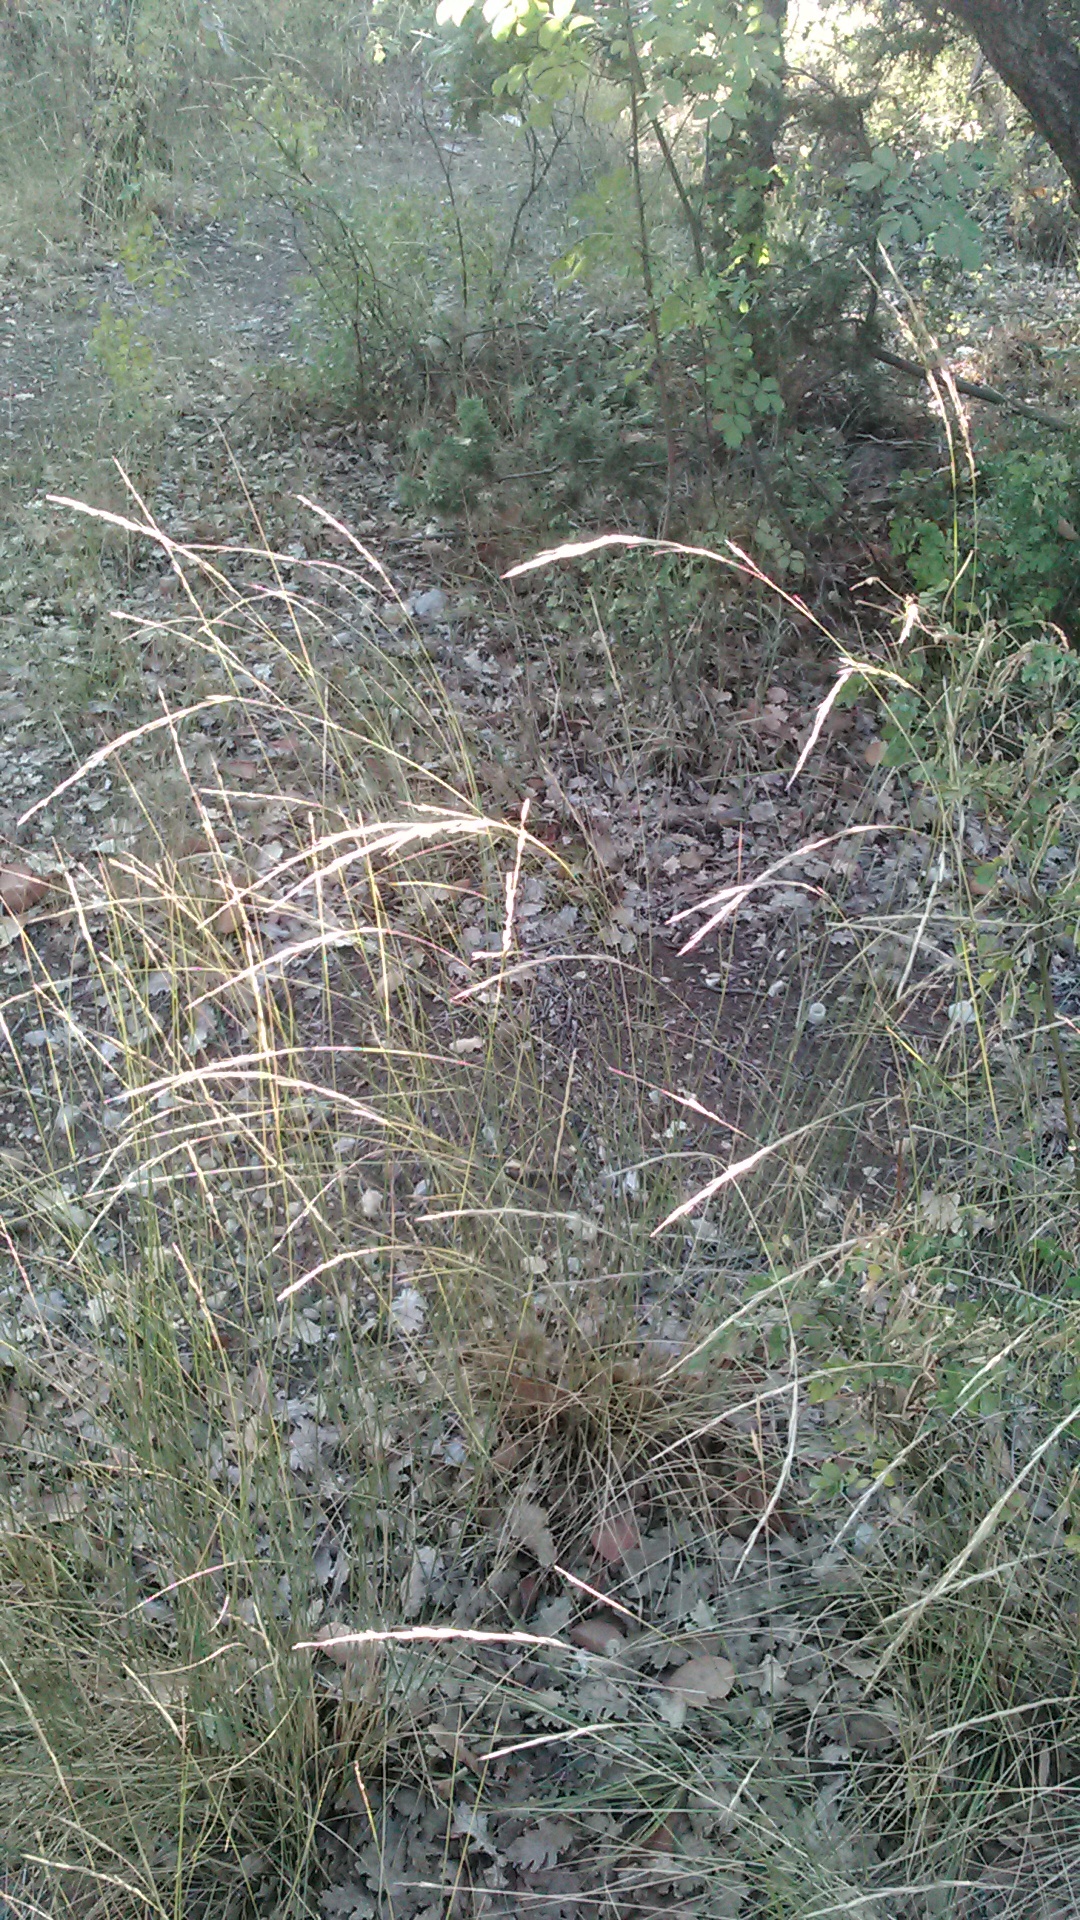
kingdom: Plantae
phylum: Tracheophyta
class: Liliopsida
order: Poales
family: Poaceae
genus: Achnatherum
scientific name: Achnatherum bromoides
